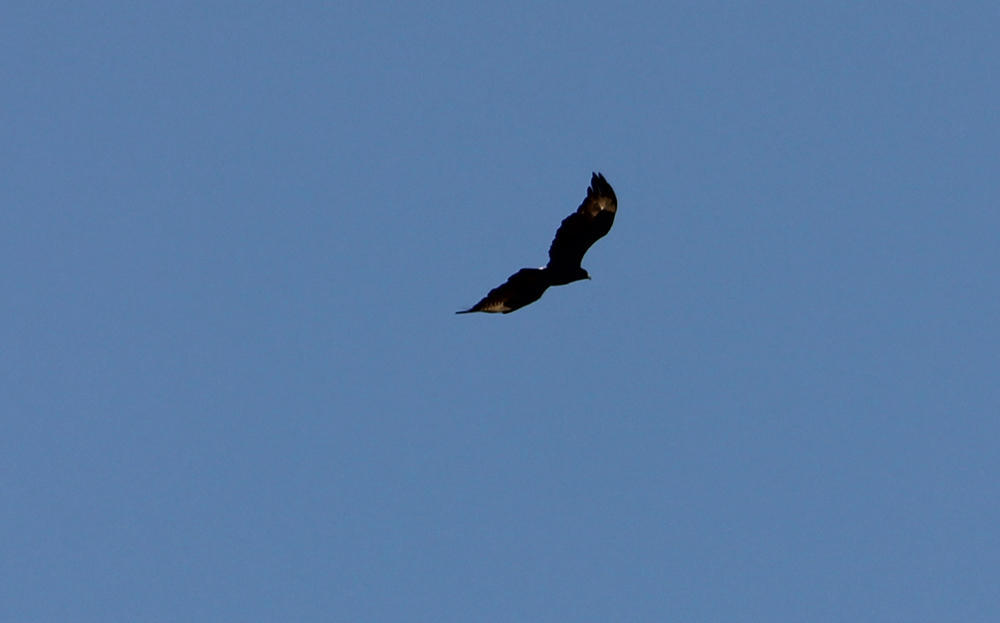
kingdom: Animalia
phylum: Chordata
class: Aves
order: Accipitriformes
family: Accipitridae
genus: Aquila
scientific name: Aquila verreauxii
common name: Verreaux's eagle
